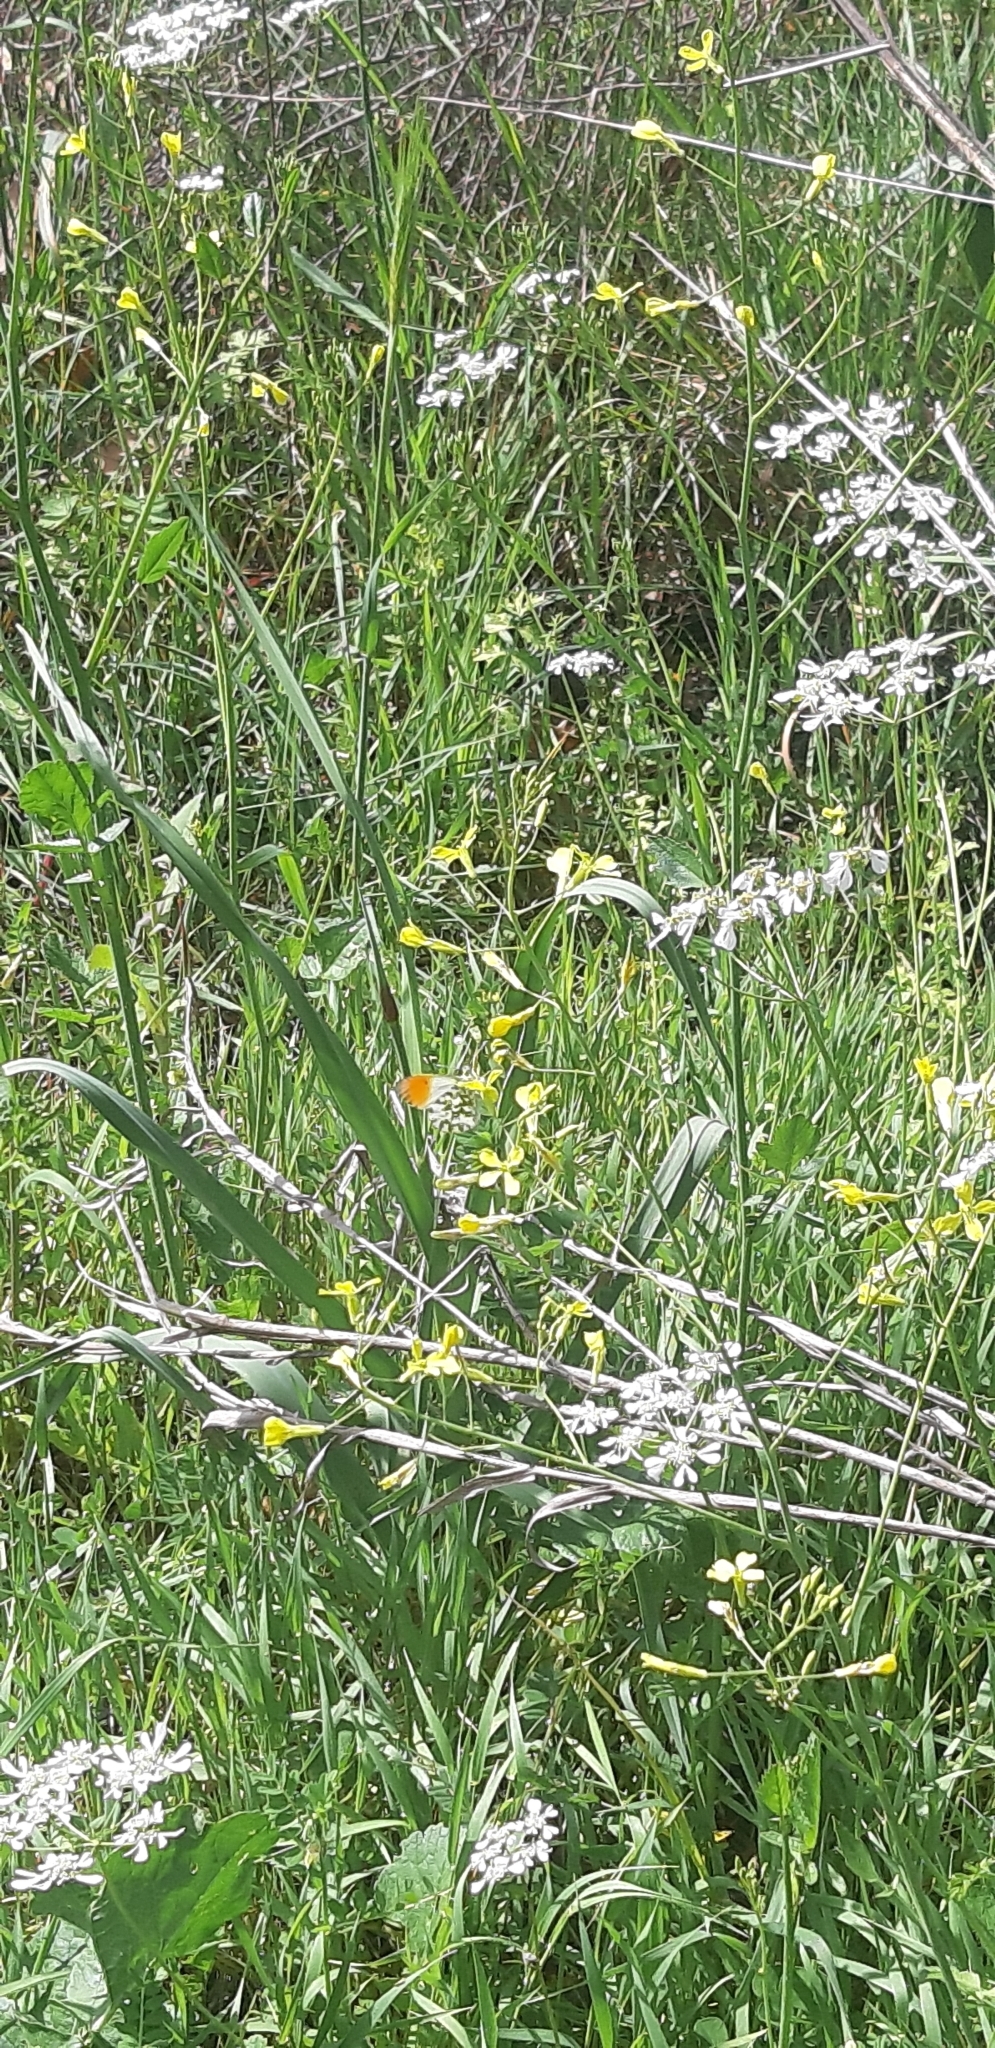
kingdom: Animalia
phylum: Arthropoda
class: Insecta
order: Lepidoptera
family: Pieridae
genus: Anthocharis
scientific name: Anthocharis cardamines
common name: Orange-tip
